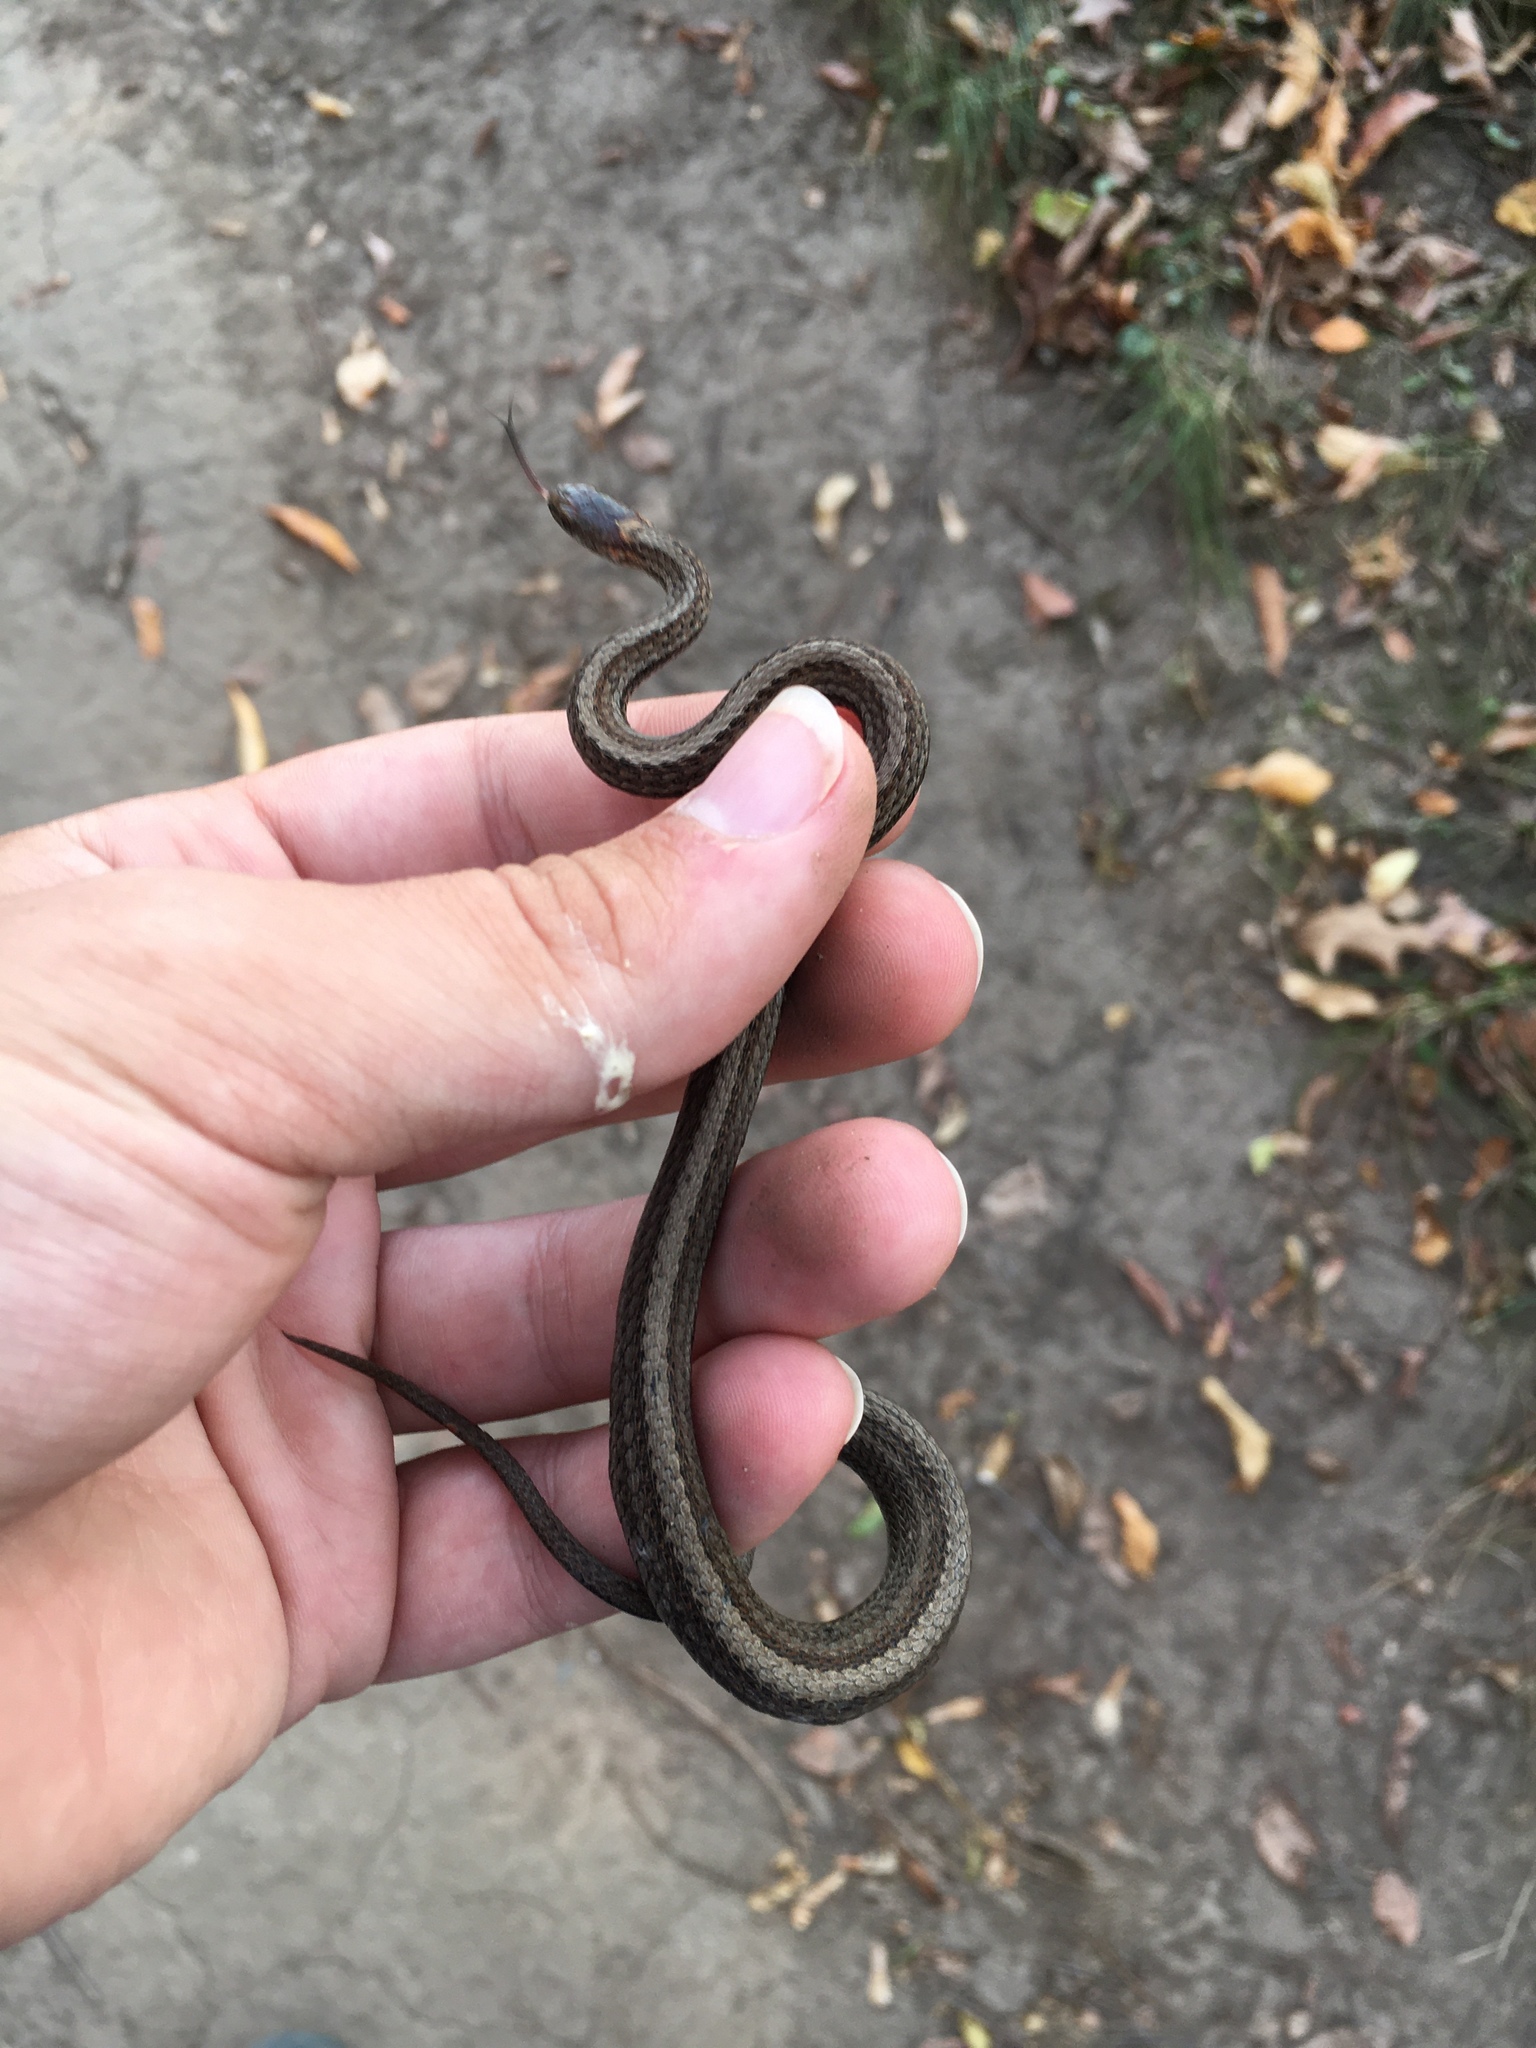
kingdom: Animalia
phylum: Chordata
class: Squamata
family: Colubridae
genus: Storeria
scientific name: Storeria occipitomaculata
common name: Redbelly snake
